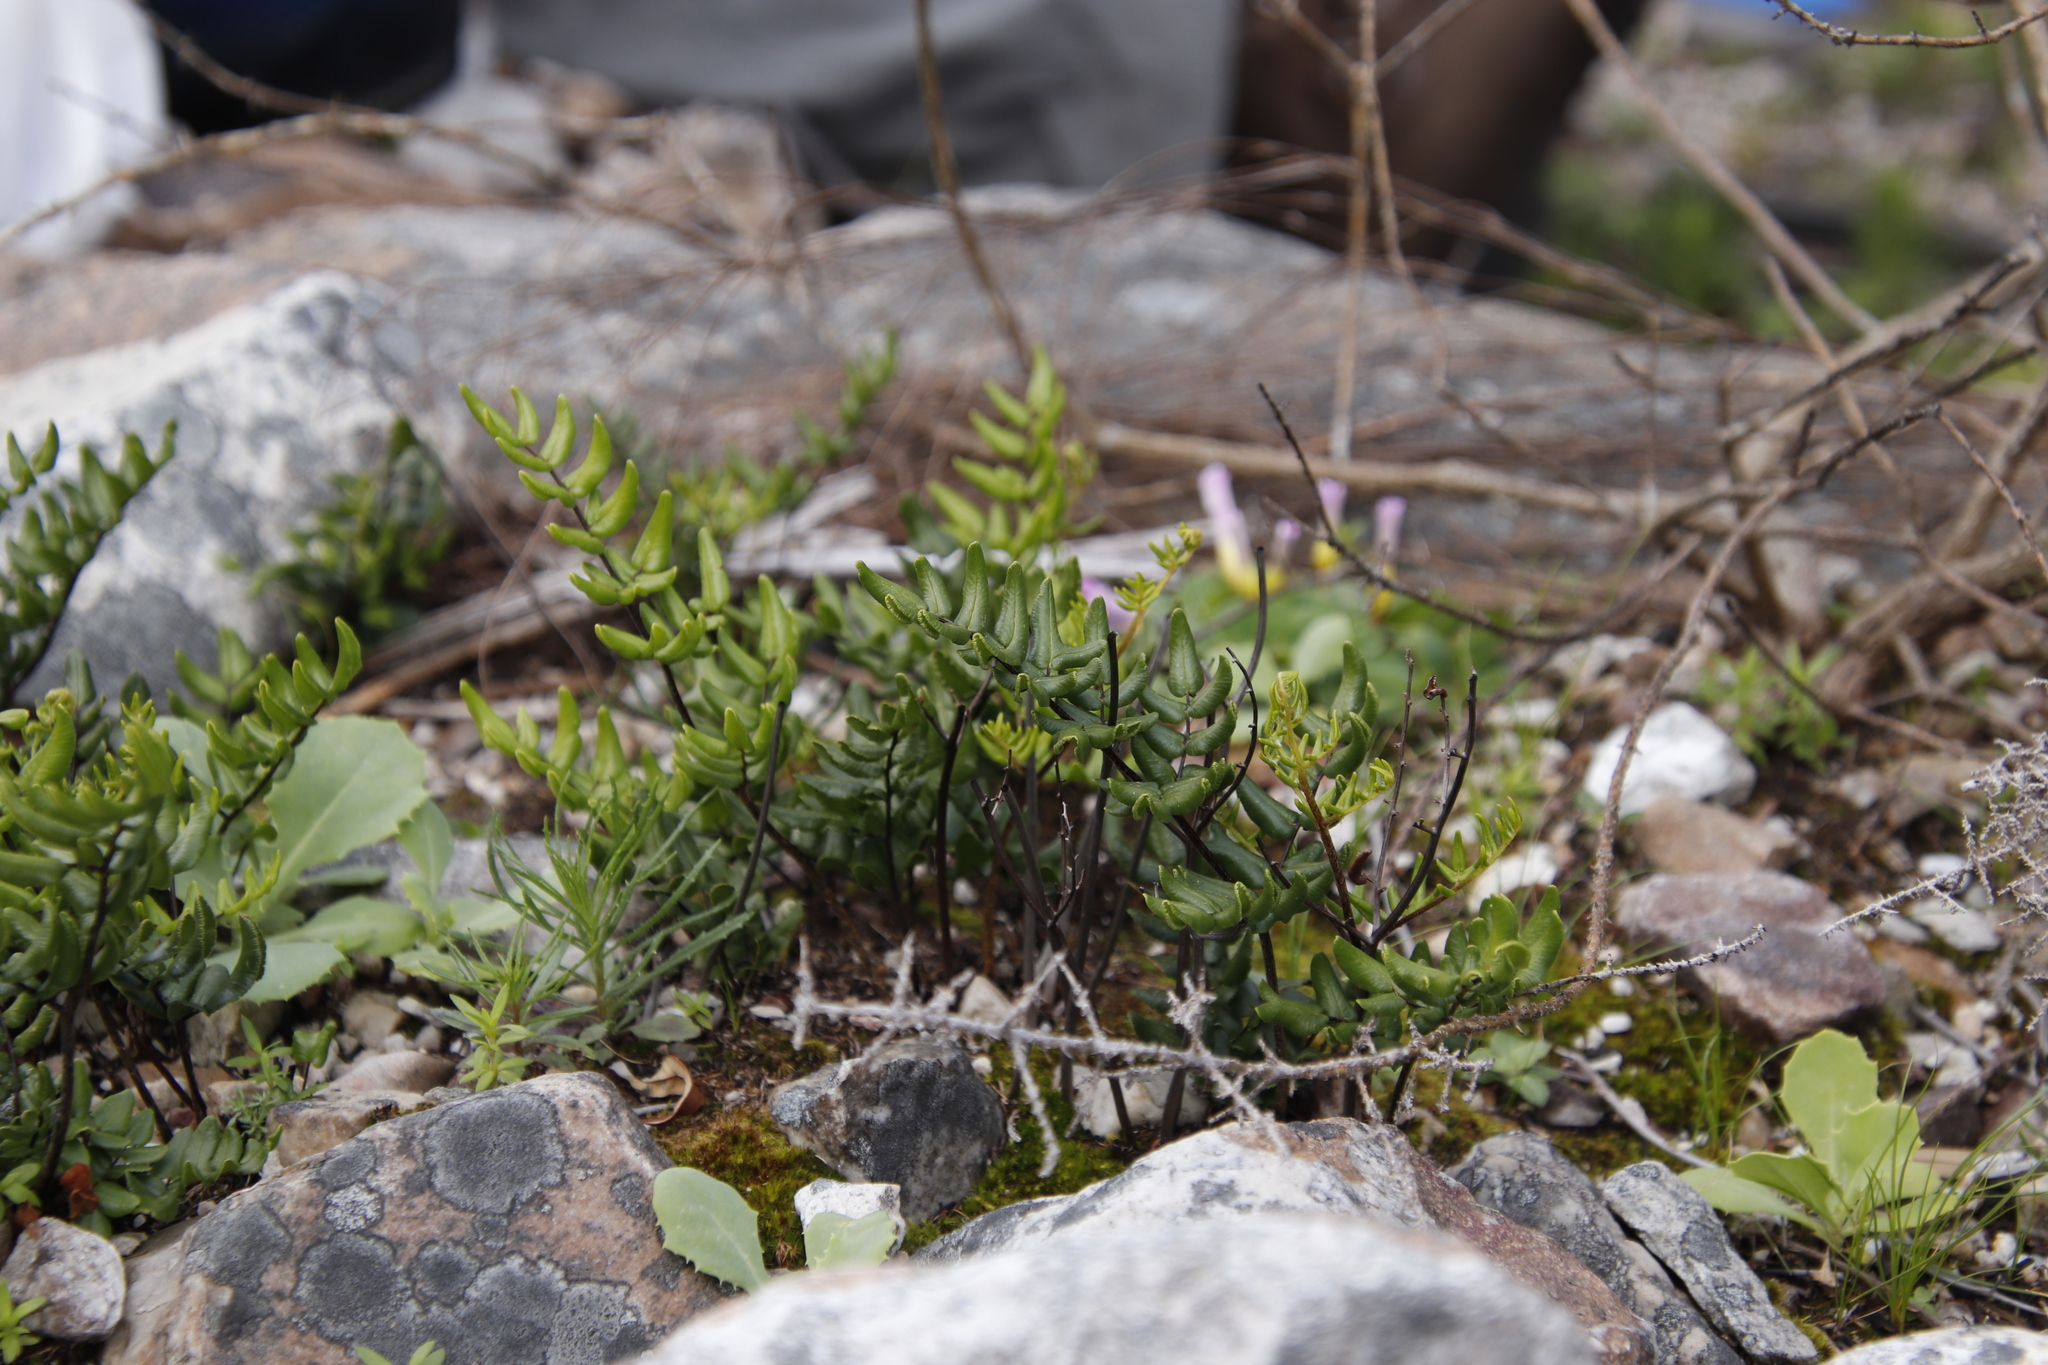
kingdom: Plantae
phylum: Tracheophyta
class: Polypodiopsida
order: Polypodiales
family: Pteridaceae
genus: Pellaea
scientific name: Pellaea pteroides
